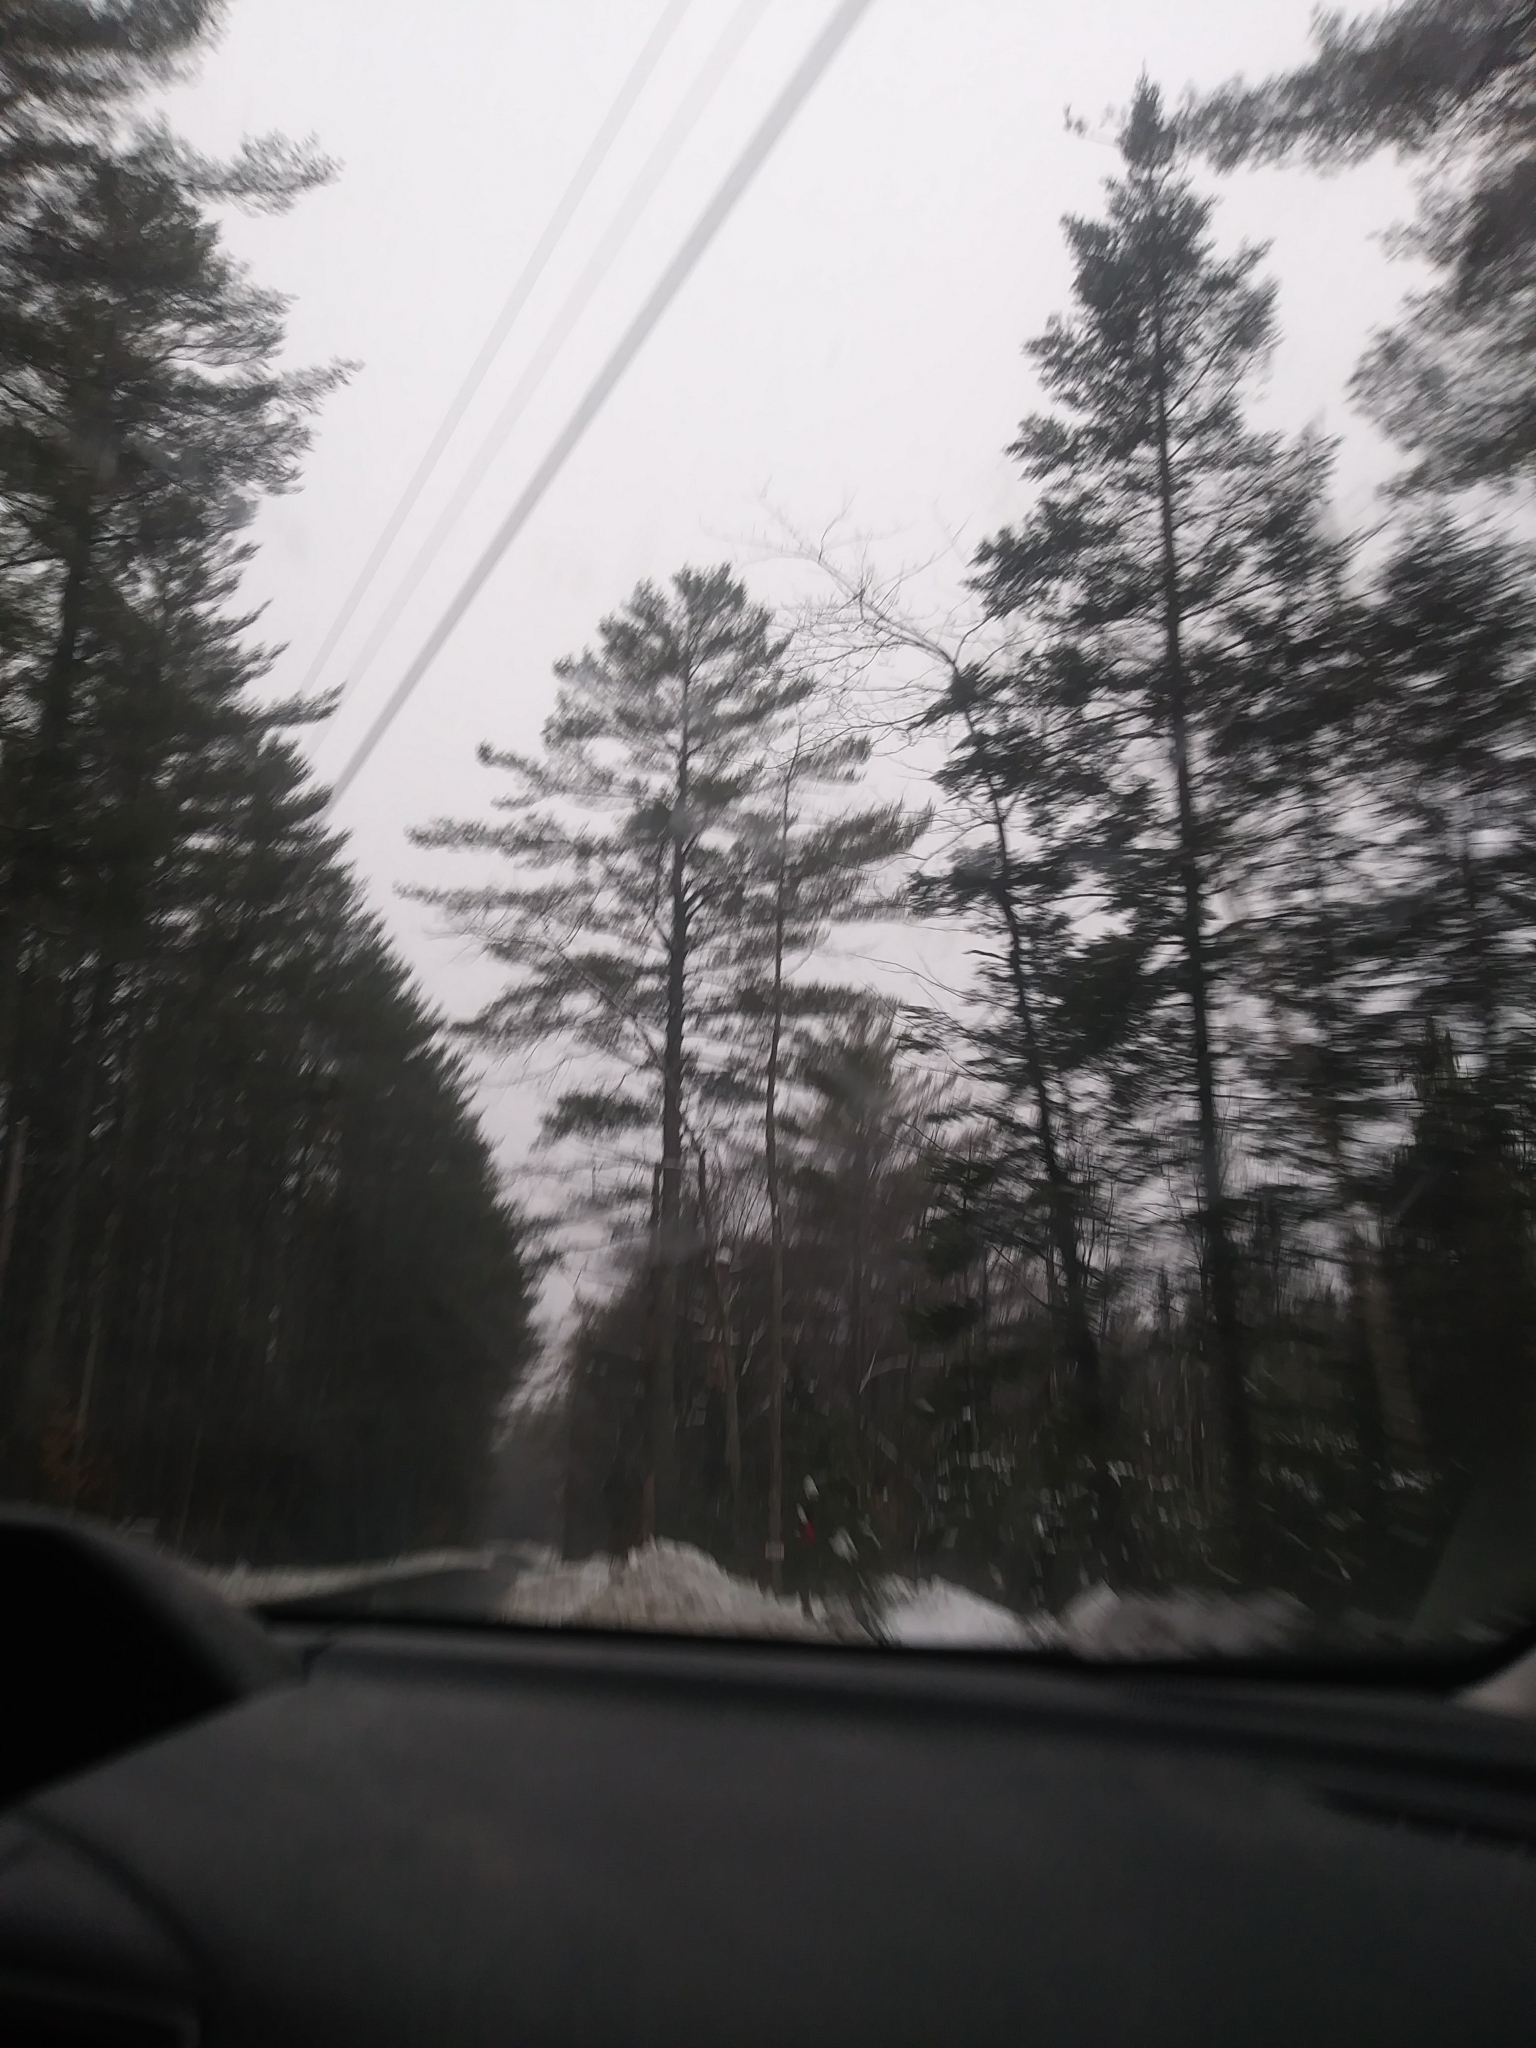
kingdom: Plantae
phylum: Tracheophyta
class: Pinopsida
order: Pinales
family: Pinaceae
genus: Pinus
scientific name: Pinus strobus
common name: Weymouth pine
